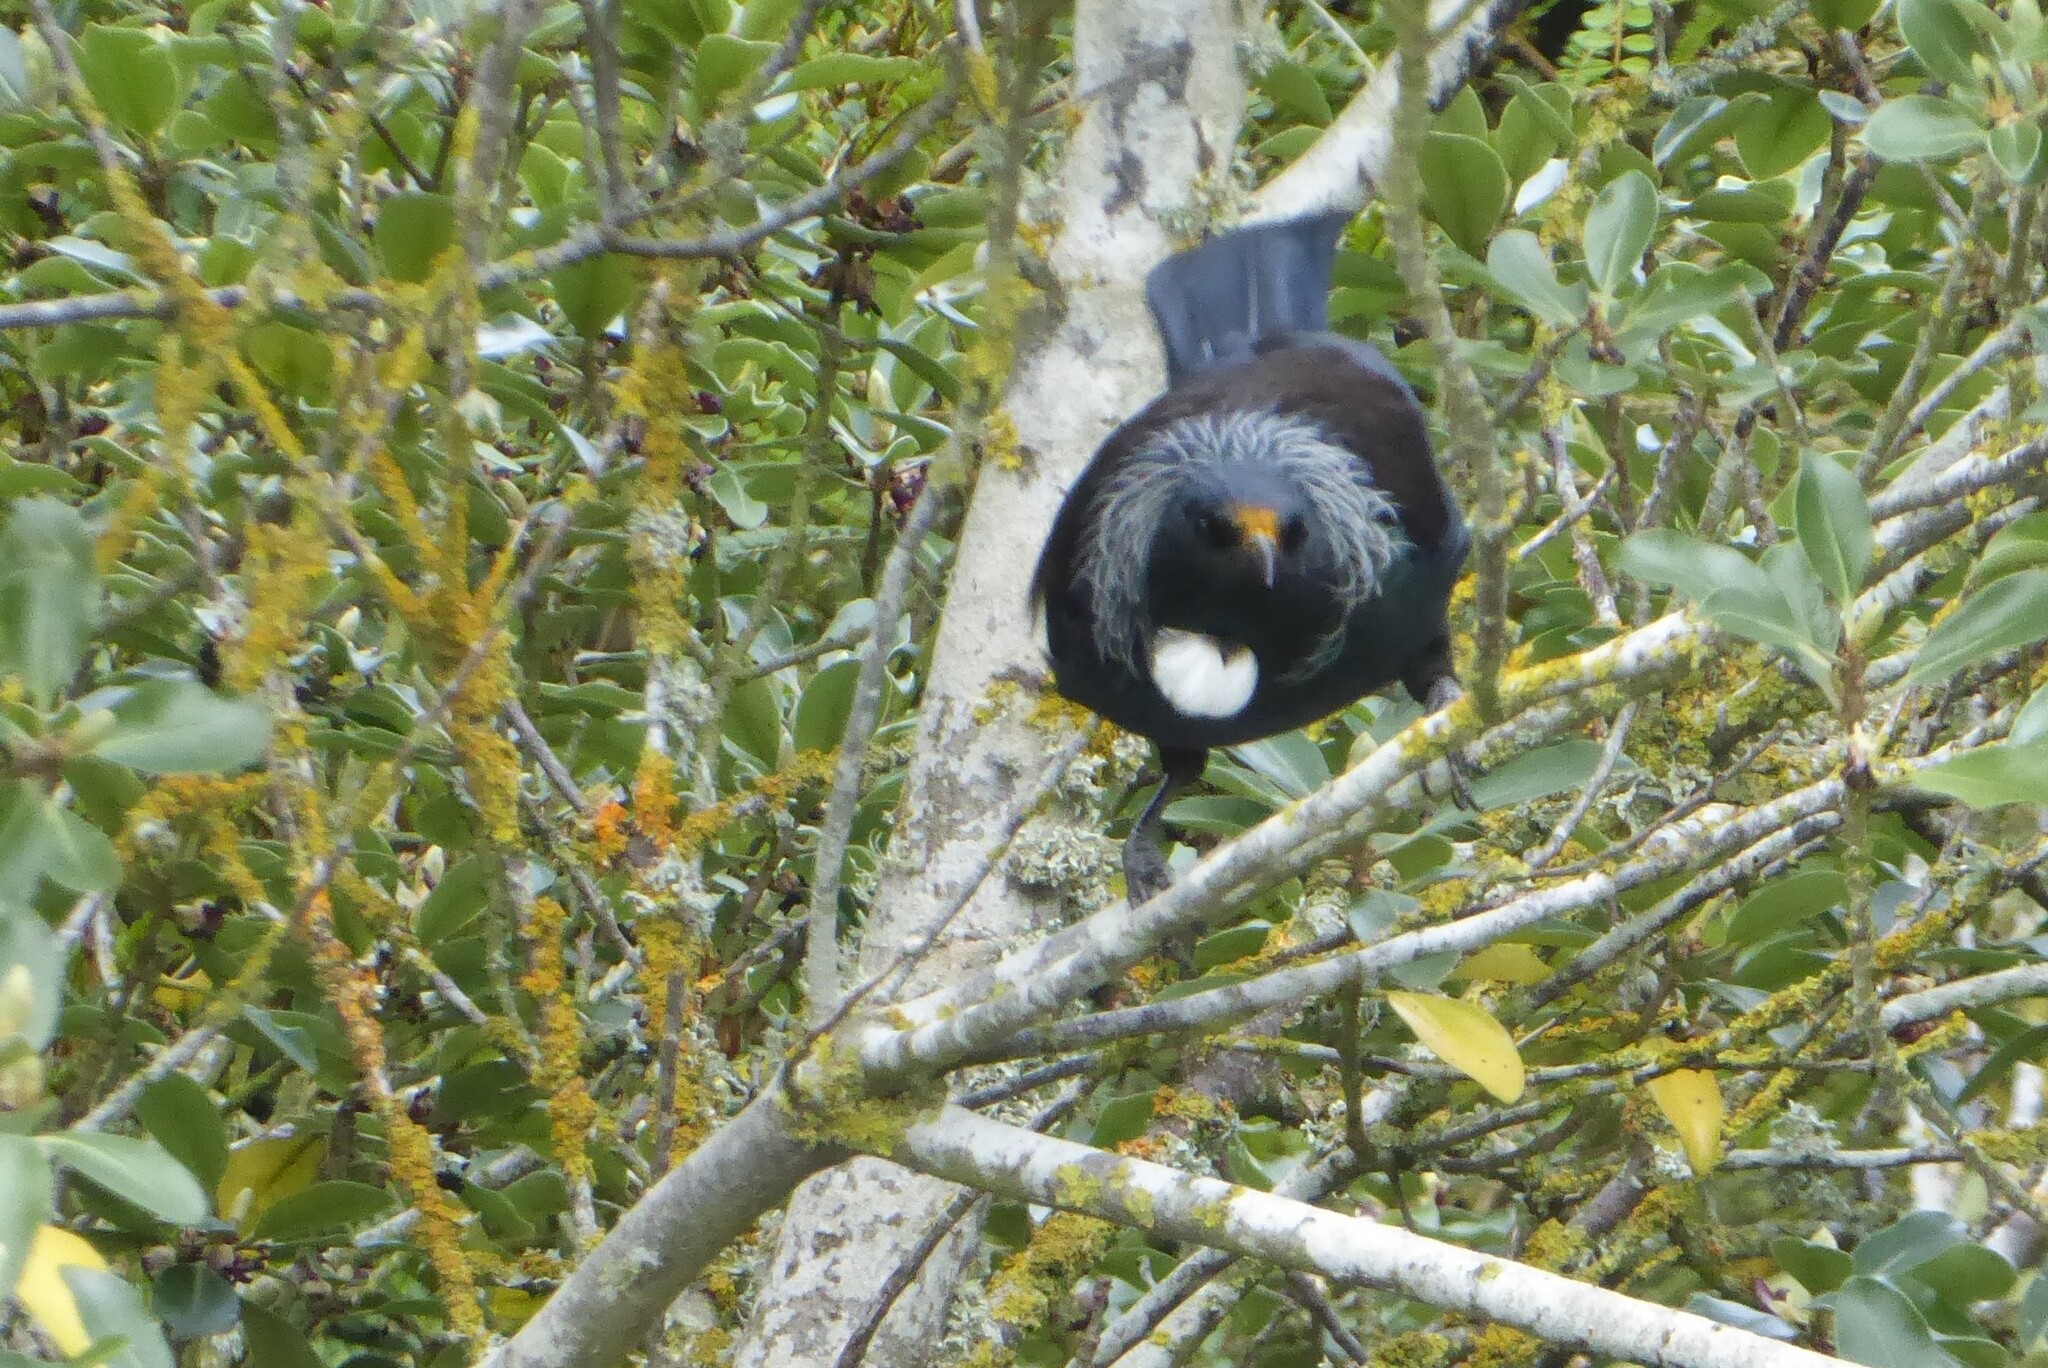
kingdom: Animalia
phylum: Chordata
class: Aves
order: Passeriformes
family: Meliphagidae
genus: Prosthemadera
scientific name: Prosthemadera novaeseelandiae
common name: Tui
